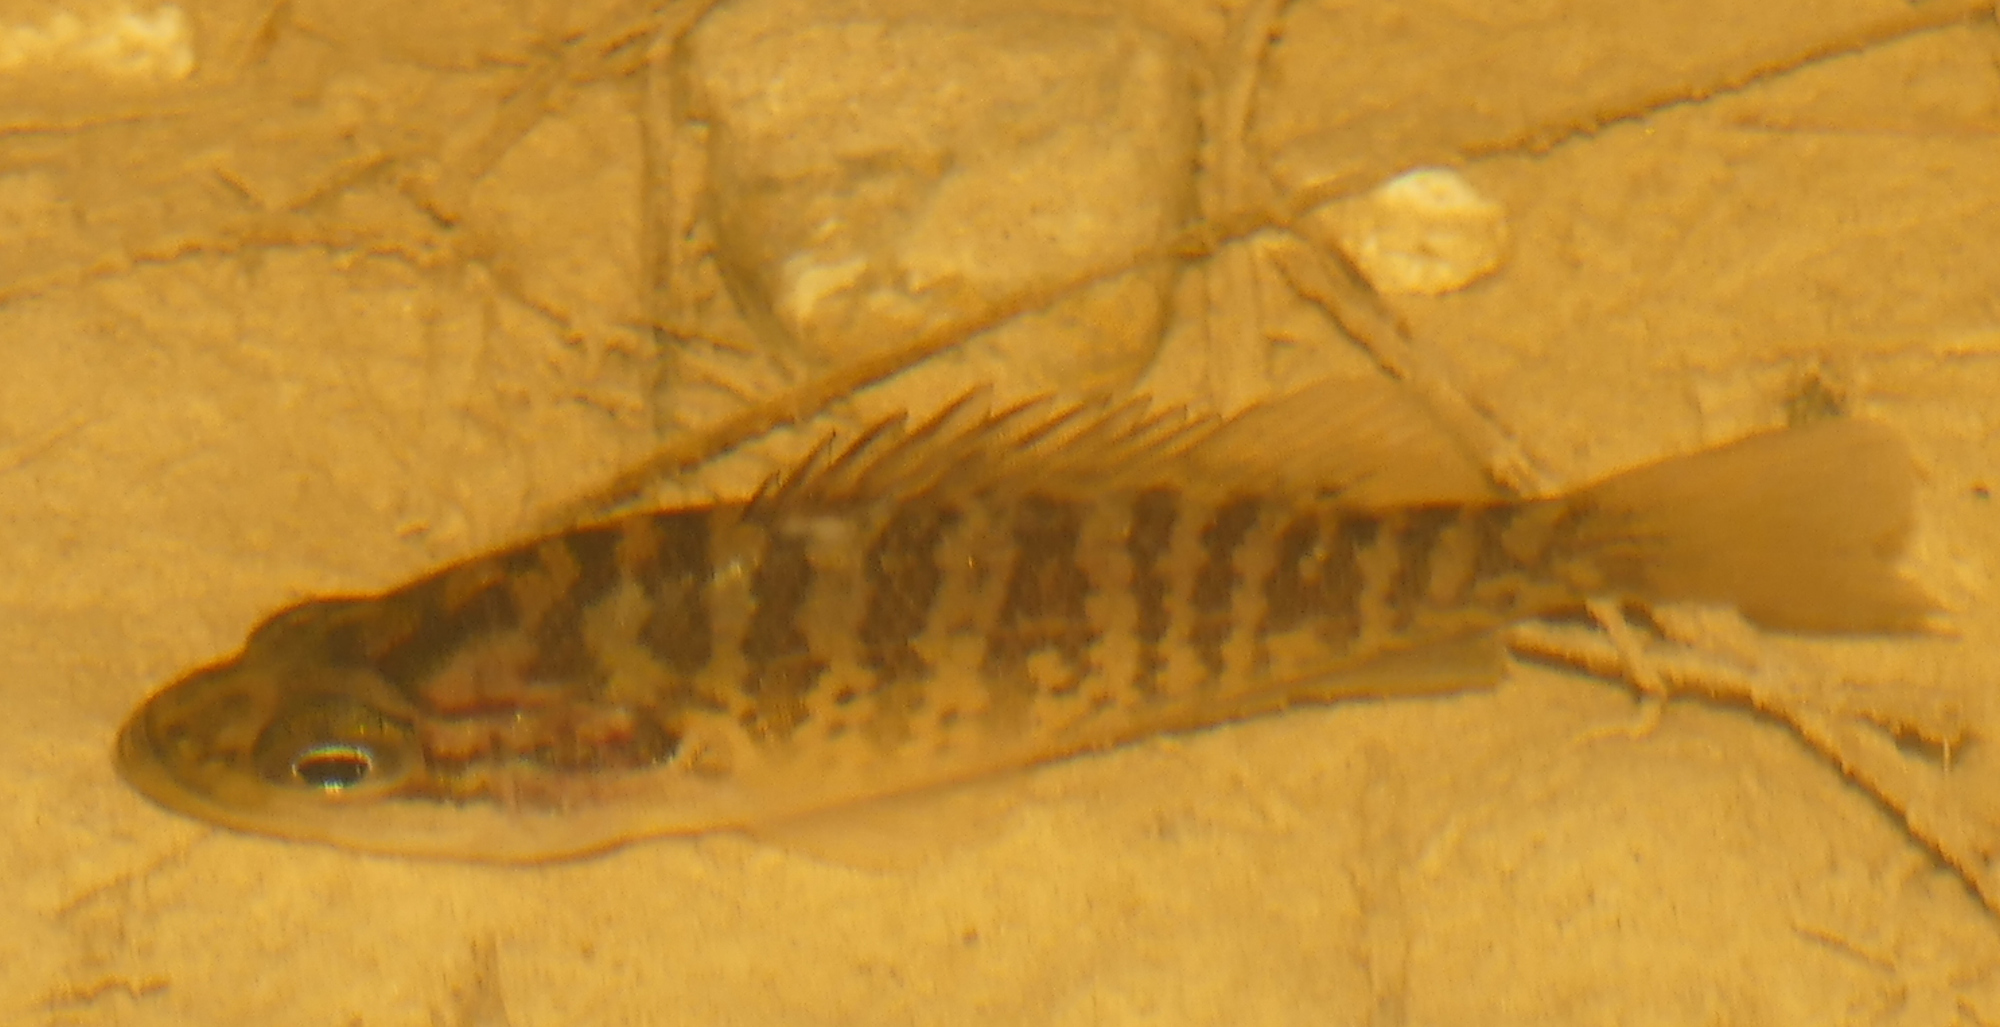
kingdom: Animalia
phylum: Chordata
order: Perciformes
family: Centrarchidae
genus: Lepomis
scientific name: Lepomis gulosus
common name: Warmouth
